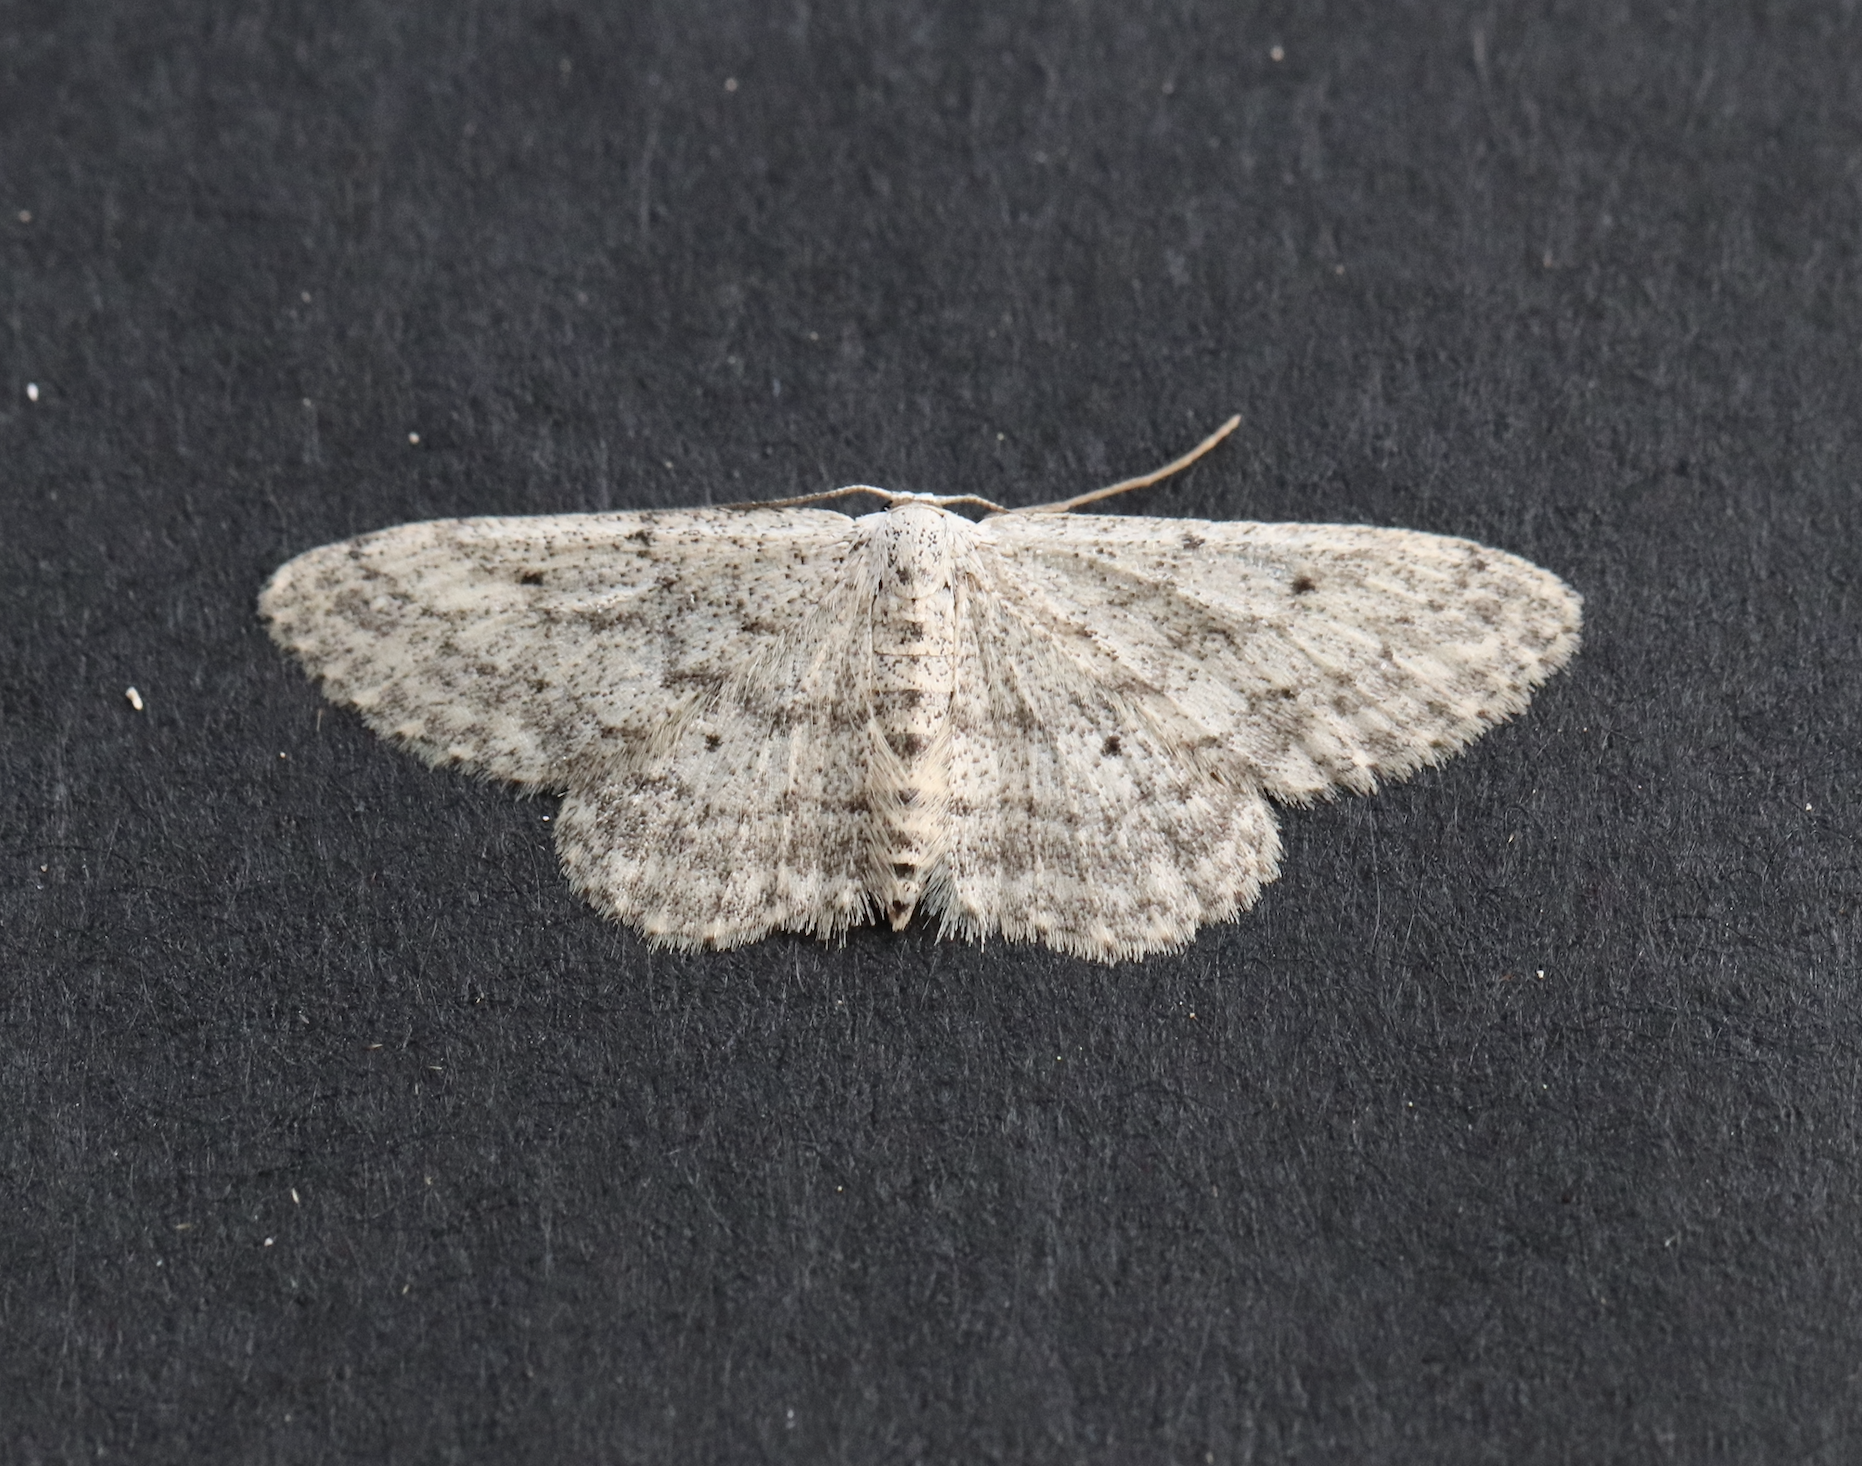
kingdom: Animalia
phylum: Arthropoda
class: Insecta
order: Lepidoptera
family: Geometridae
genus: Idaea
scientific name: Idaea seriata
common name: Small dusty wave
